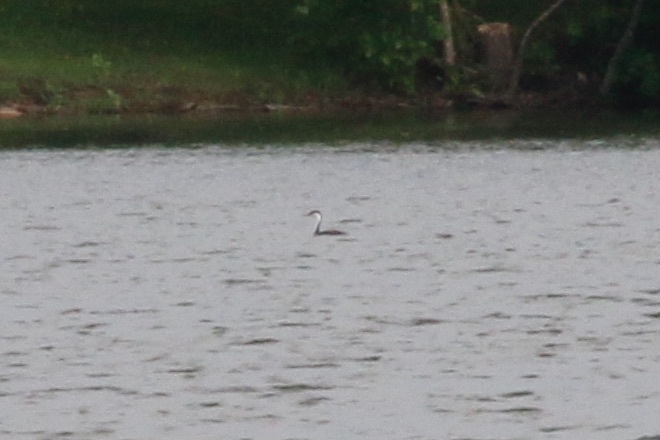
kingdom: Animalia
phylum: Chordata
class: Aves
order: Podicipediformes
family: Podicipedidae
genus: Aechmophorus
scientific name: Aechmophorus occidentalis
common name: Western grebe
